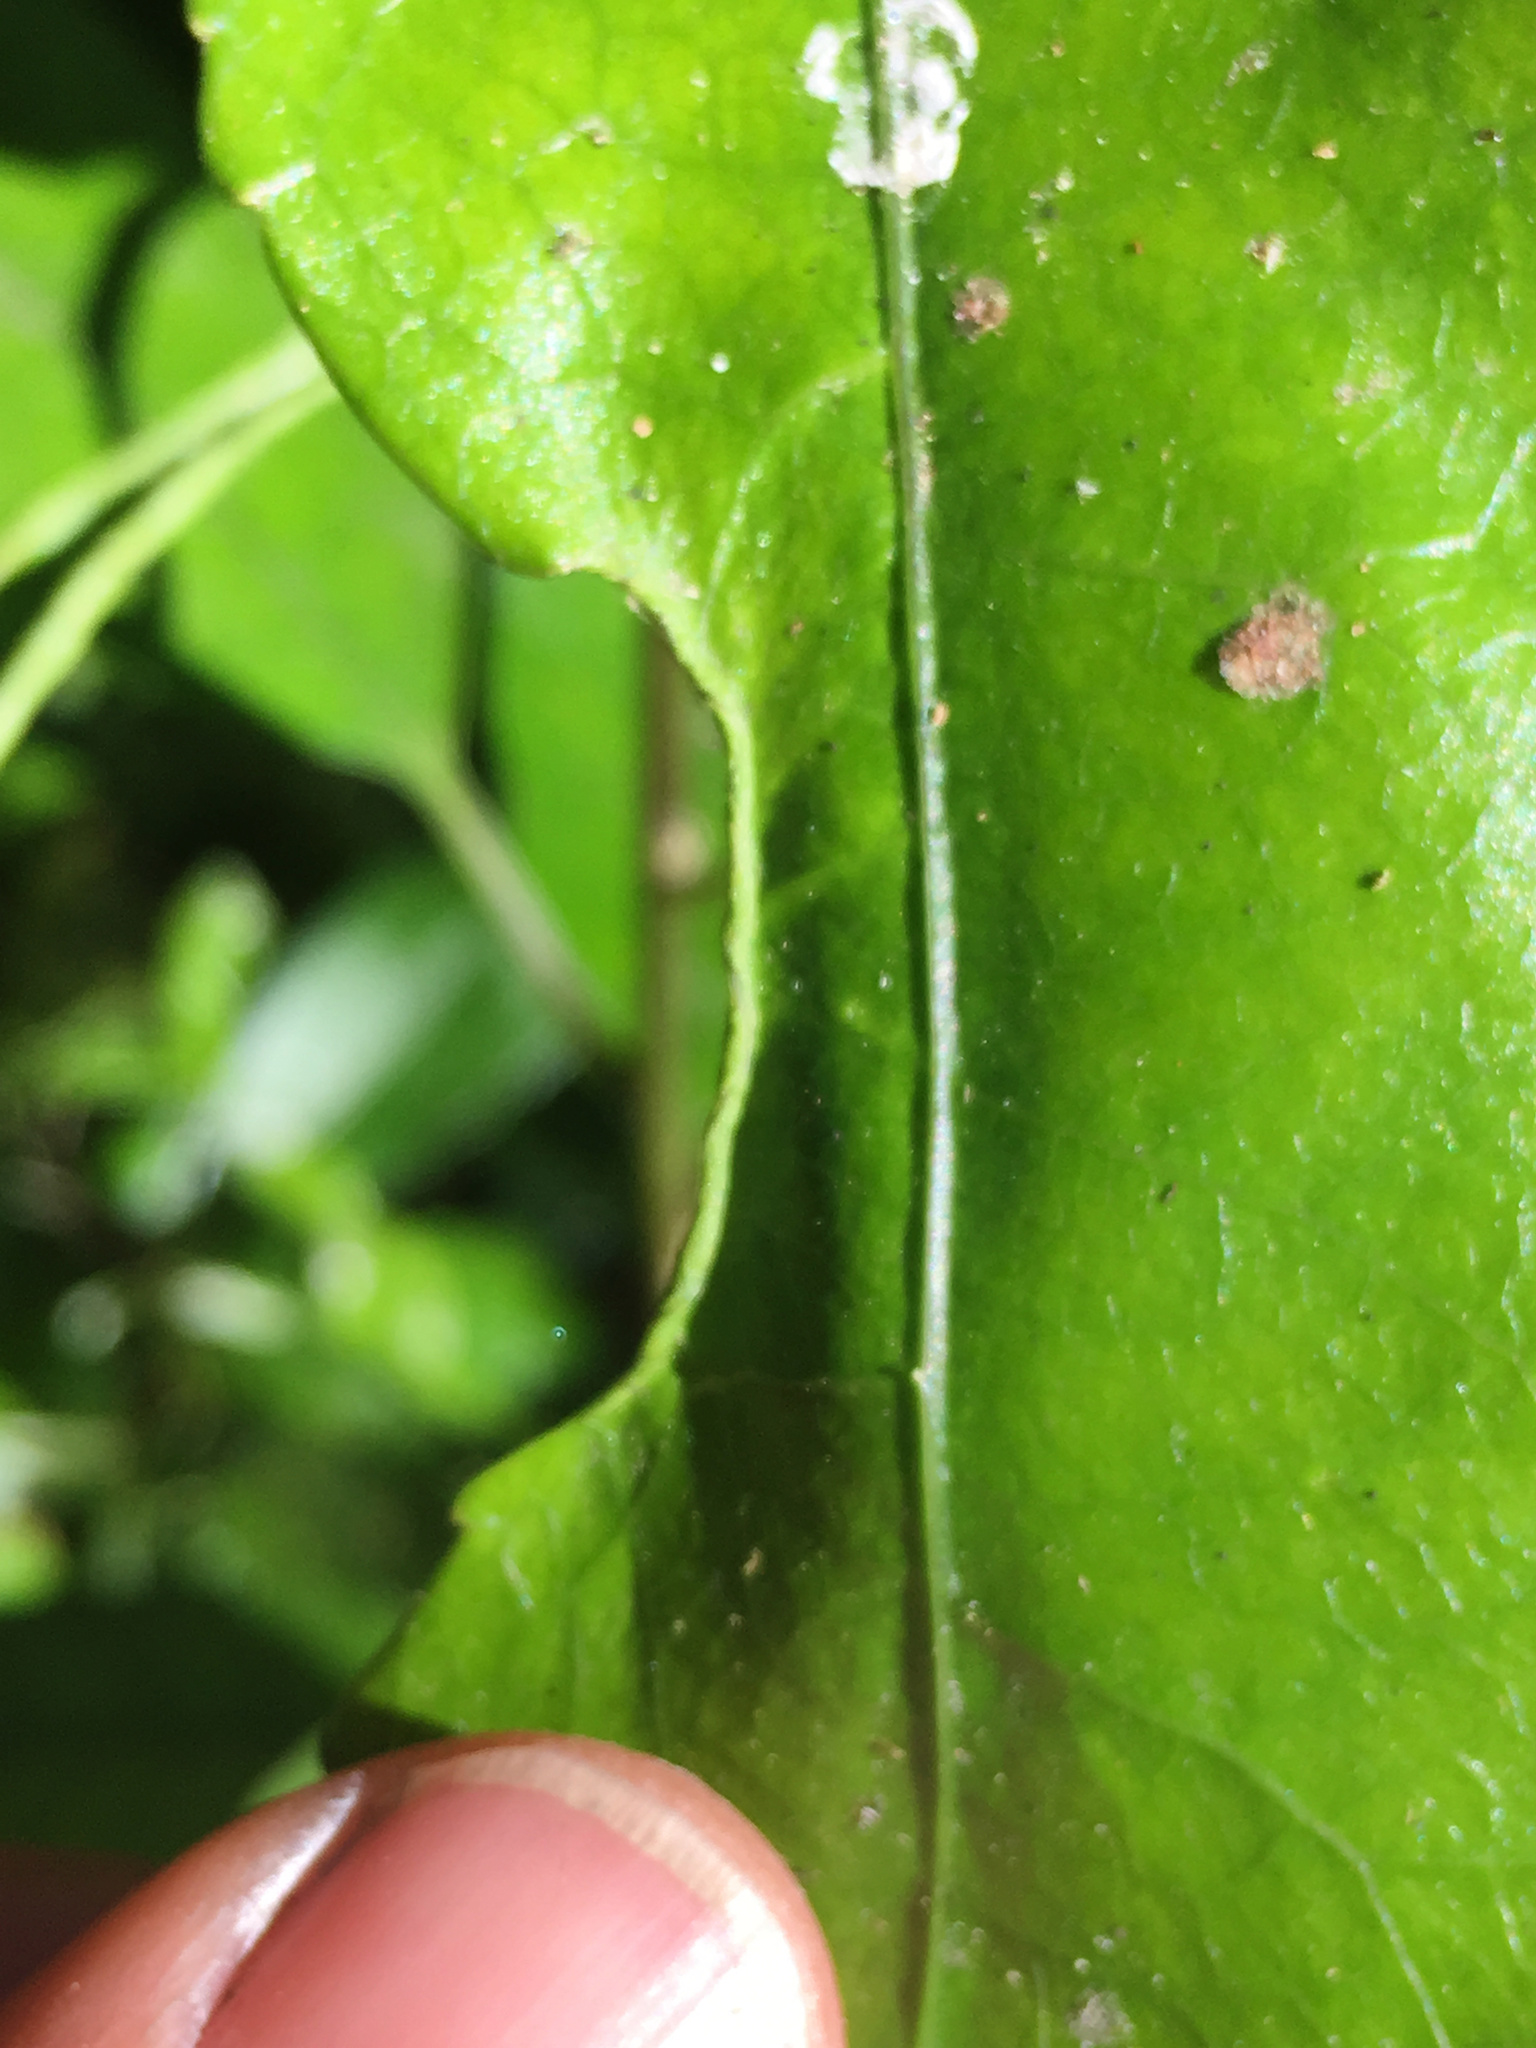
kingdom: Animalia
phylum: Arthropoda
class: Arachnida
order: Trombidiformes
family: Eriophyidae
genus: Aceria
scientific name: Aceria
